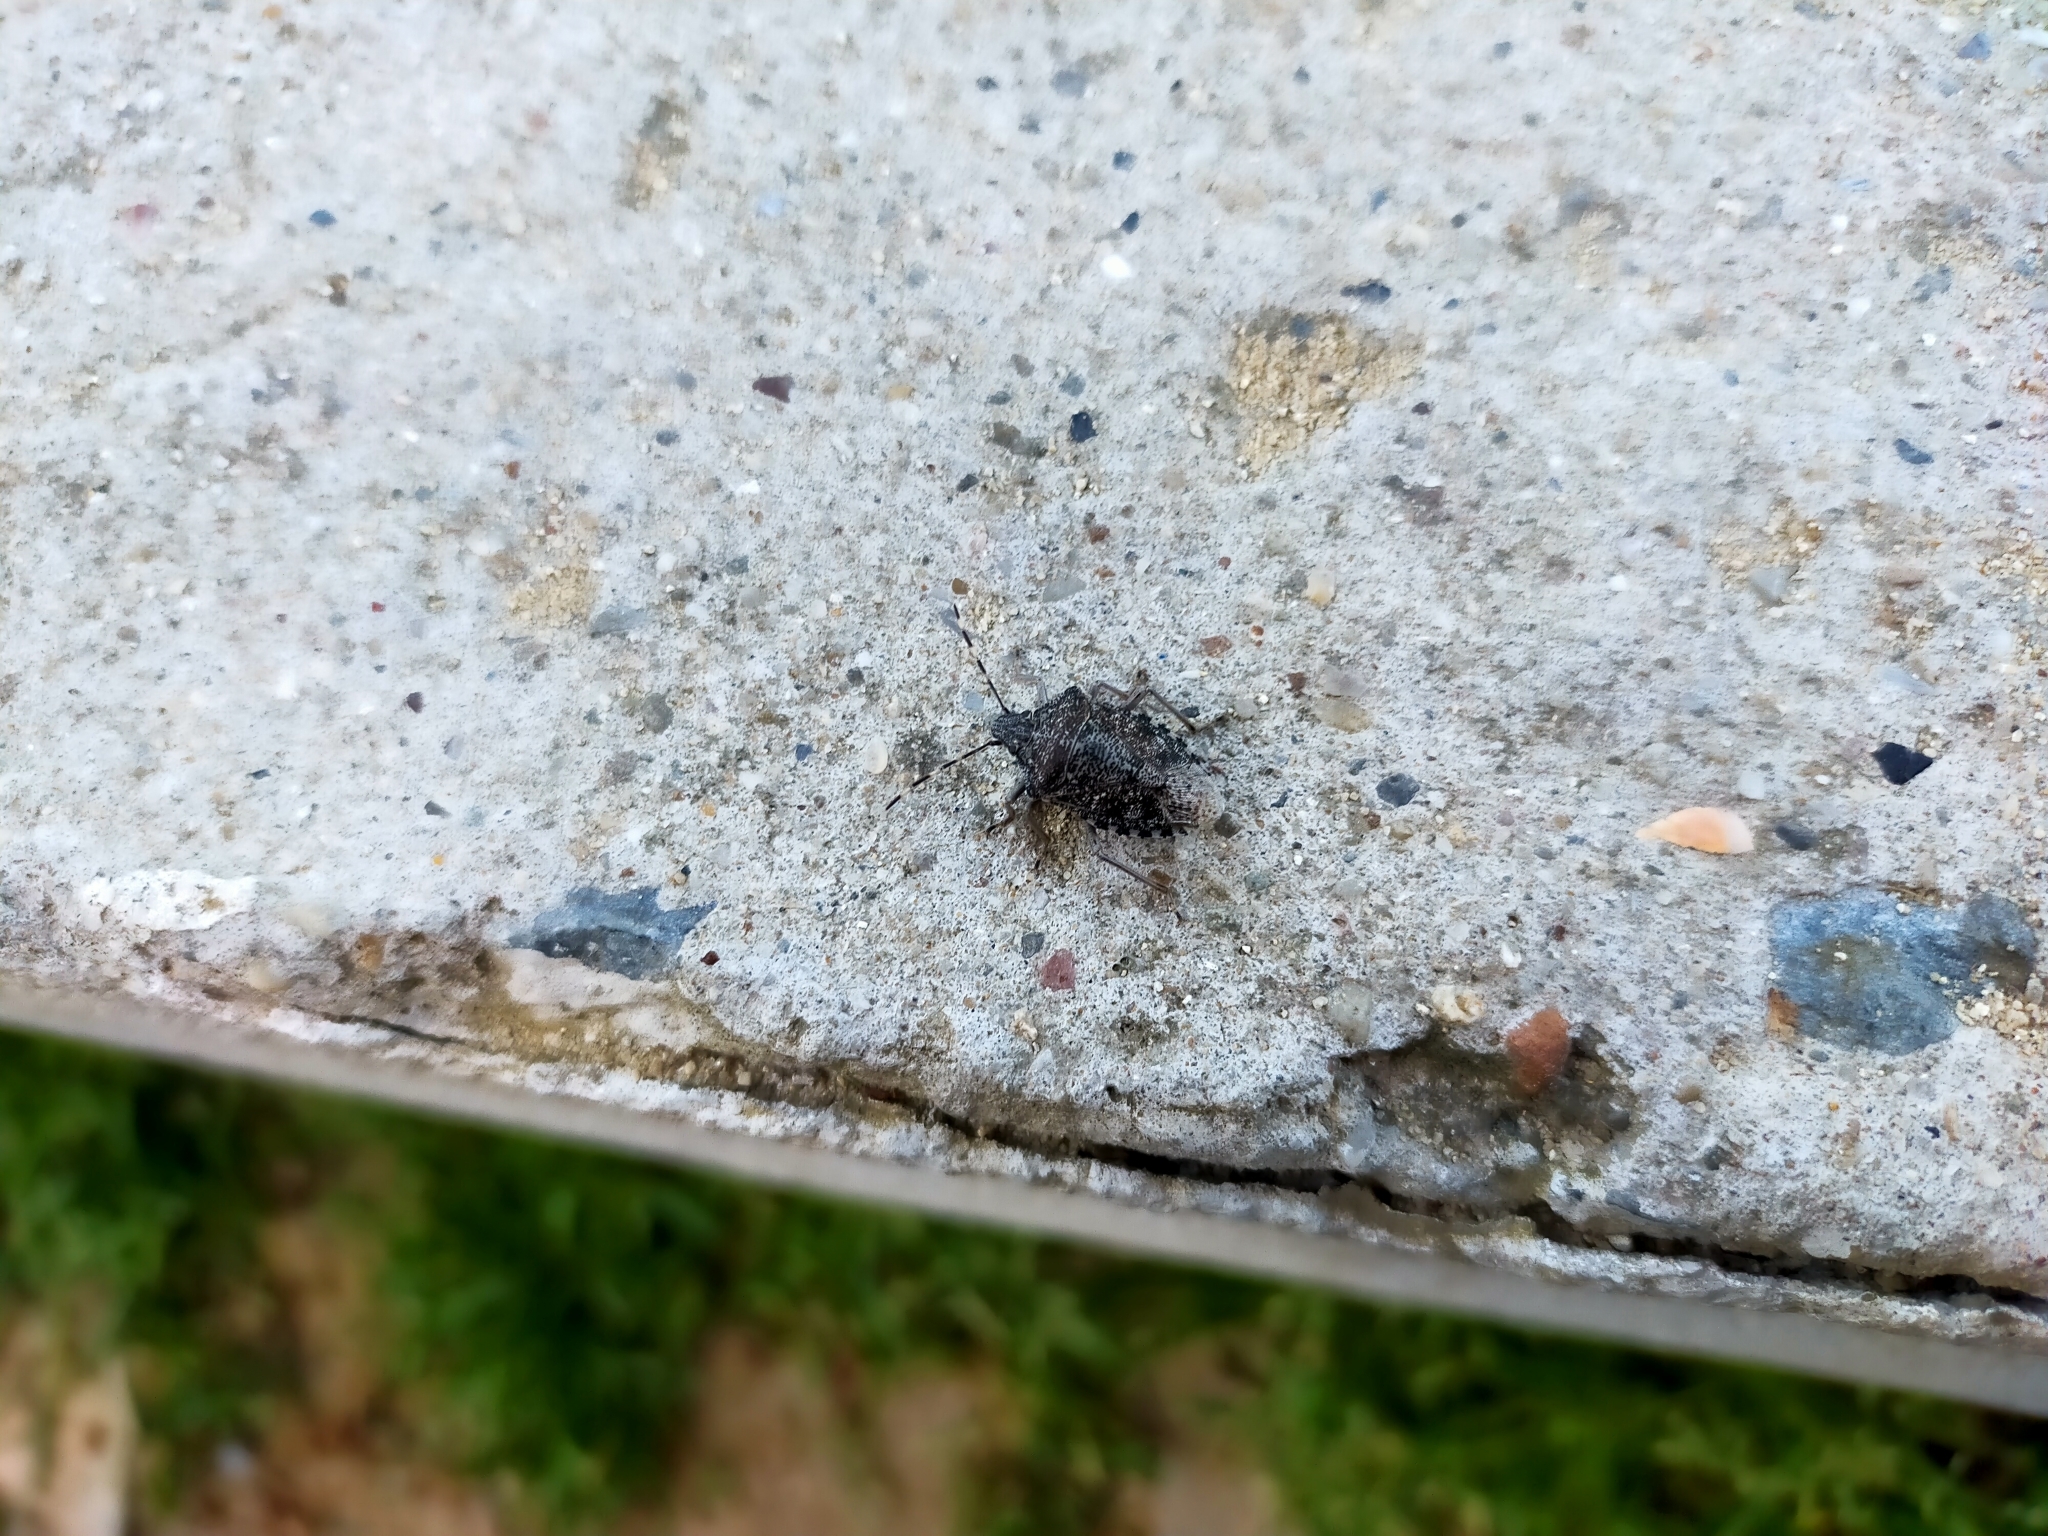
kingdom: Animalia
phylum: Arthropoda
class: Insecta
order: Hemiptera
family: Pentatomidae
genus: Rhaphigaster
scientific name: Rhaphigaster nebulosa
